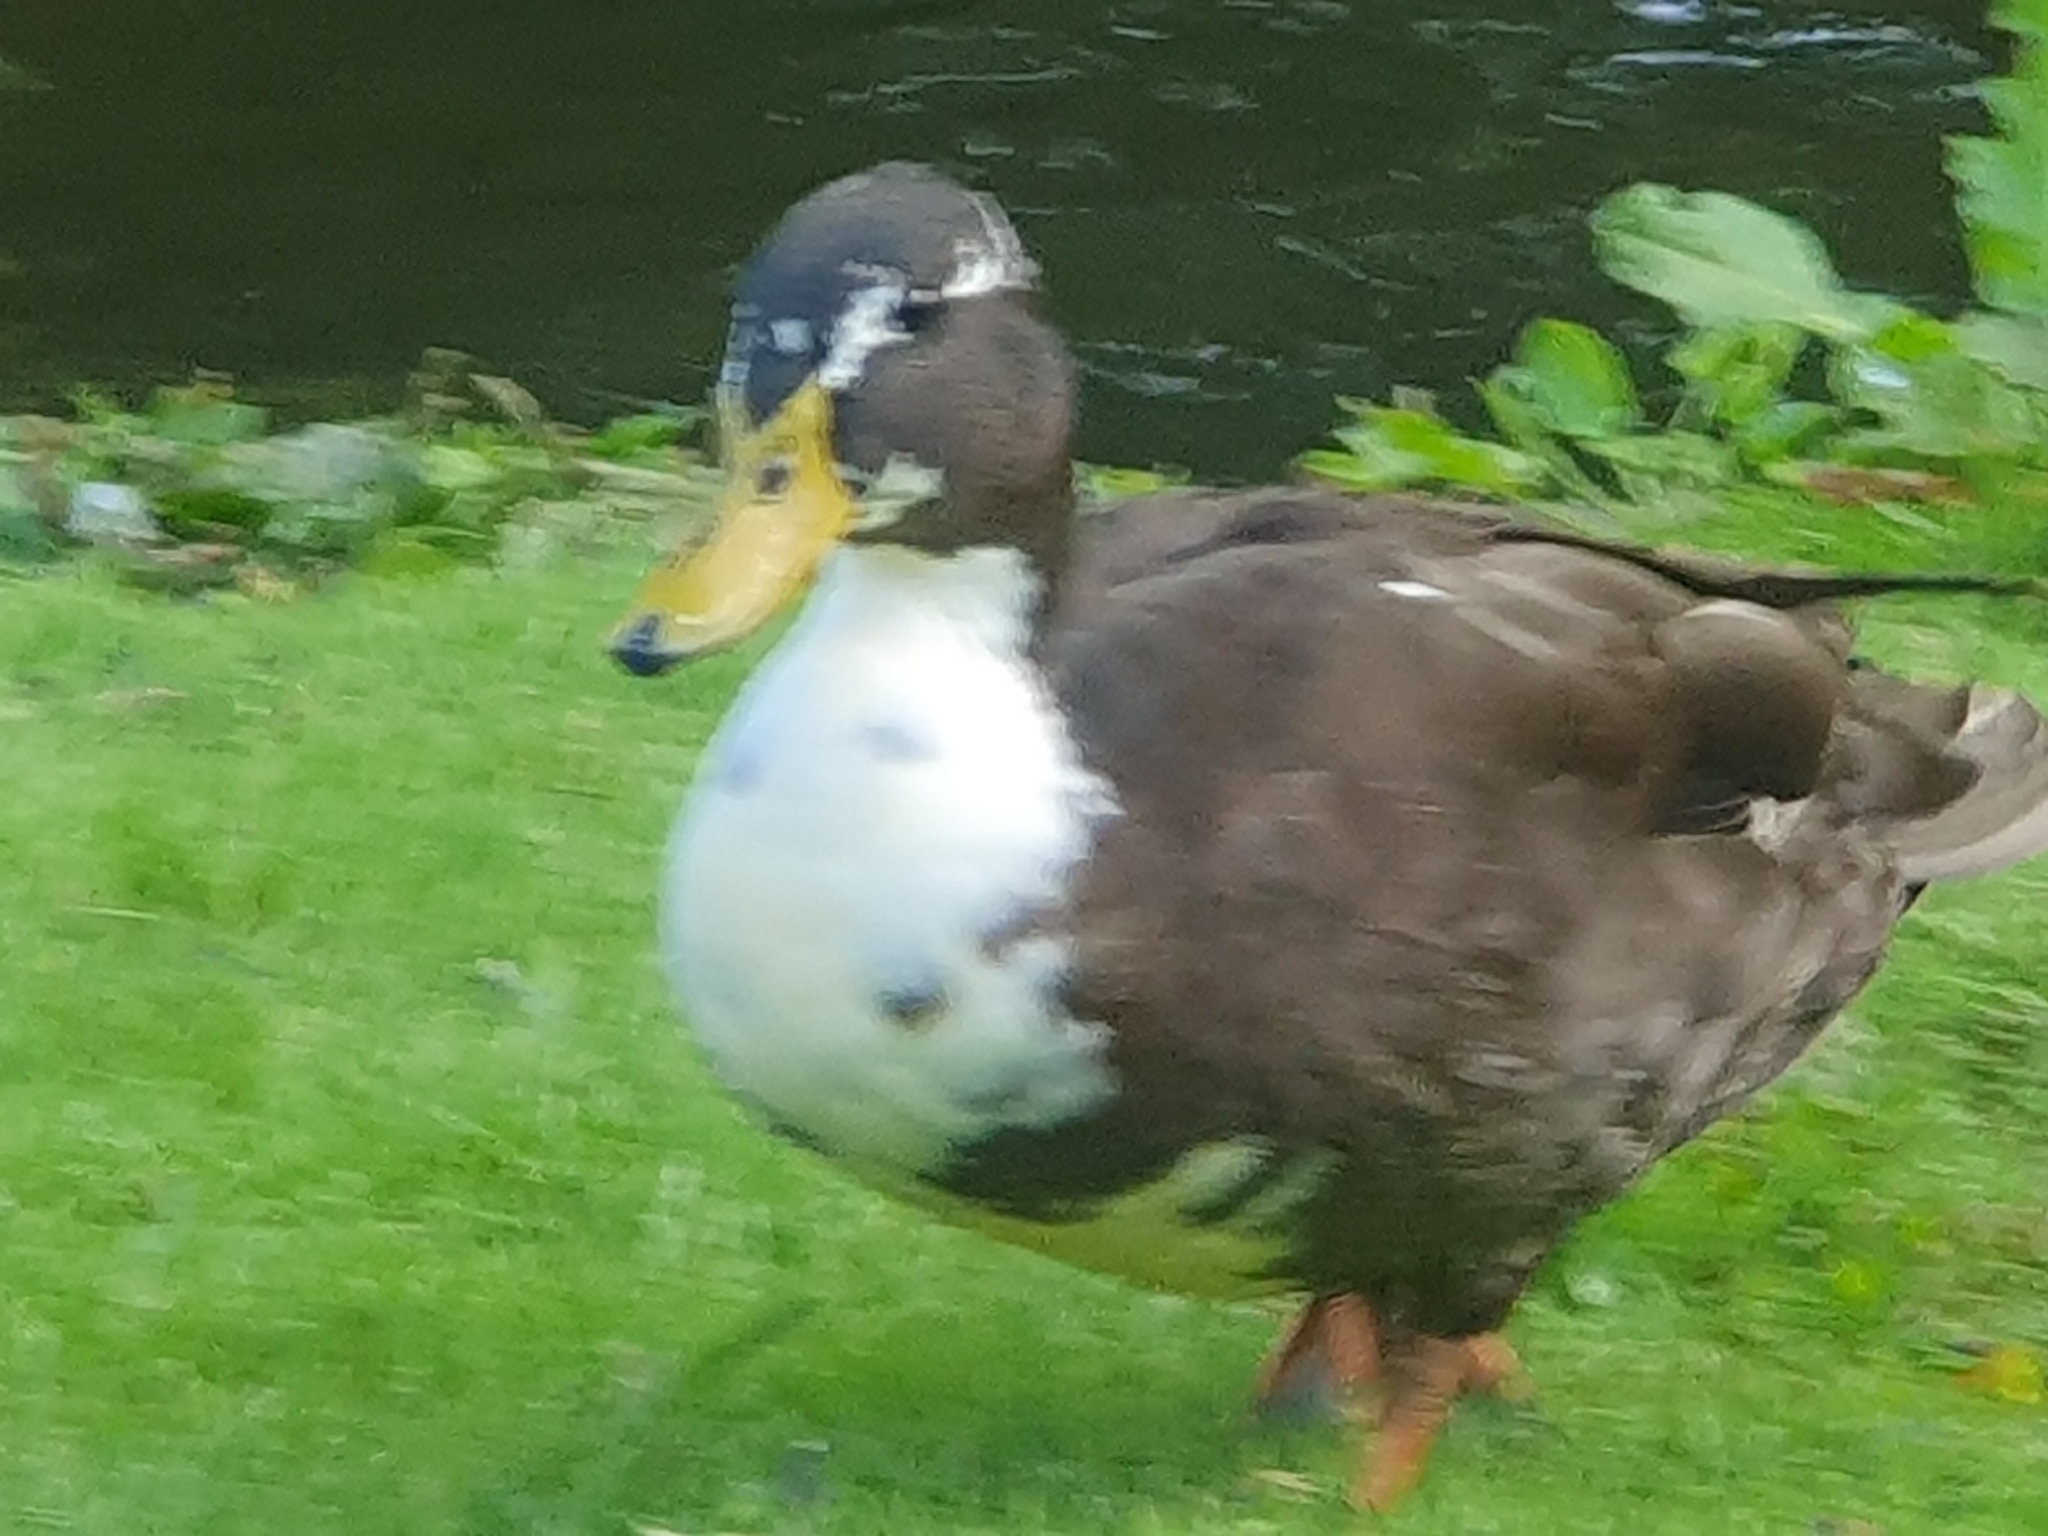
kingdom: Animalia
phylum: Chordata
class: Aves
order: Anseriformes
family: Anatidae
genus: Anas
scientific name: Anas platyrhynchos
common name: Mallard
